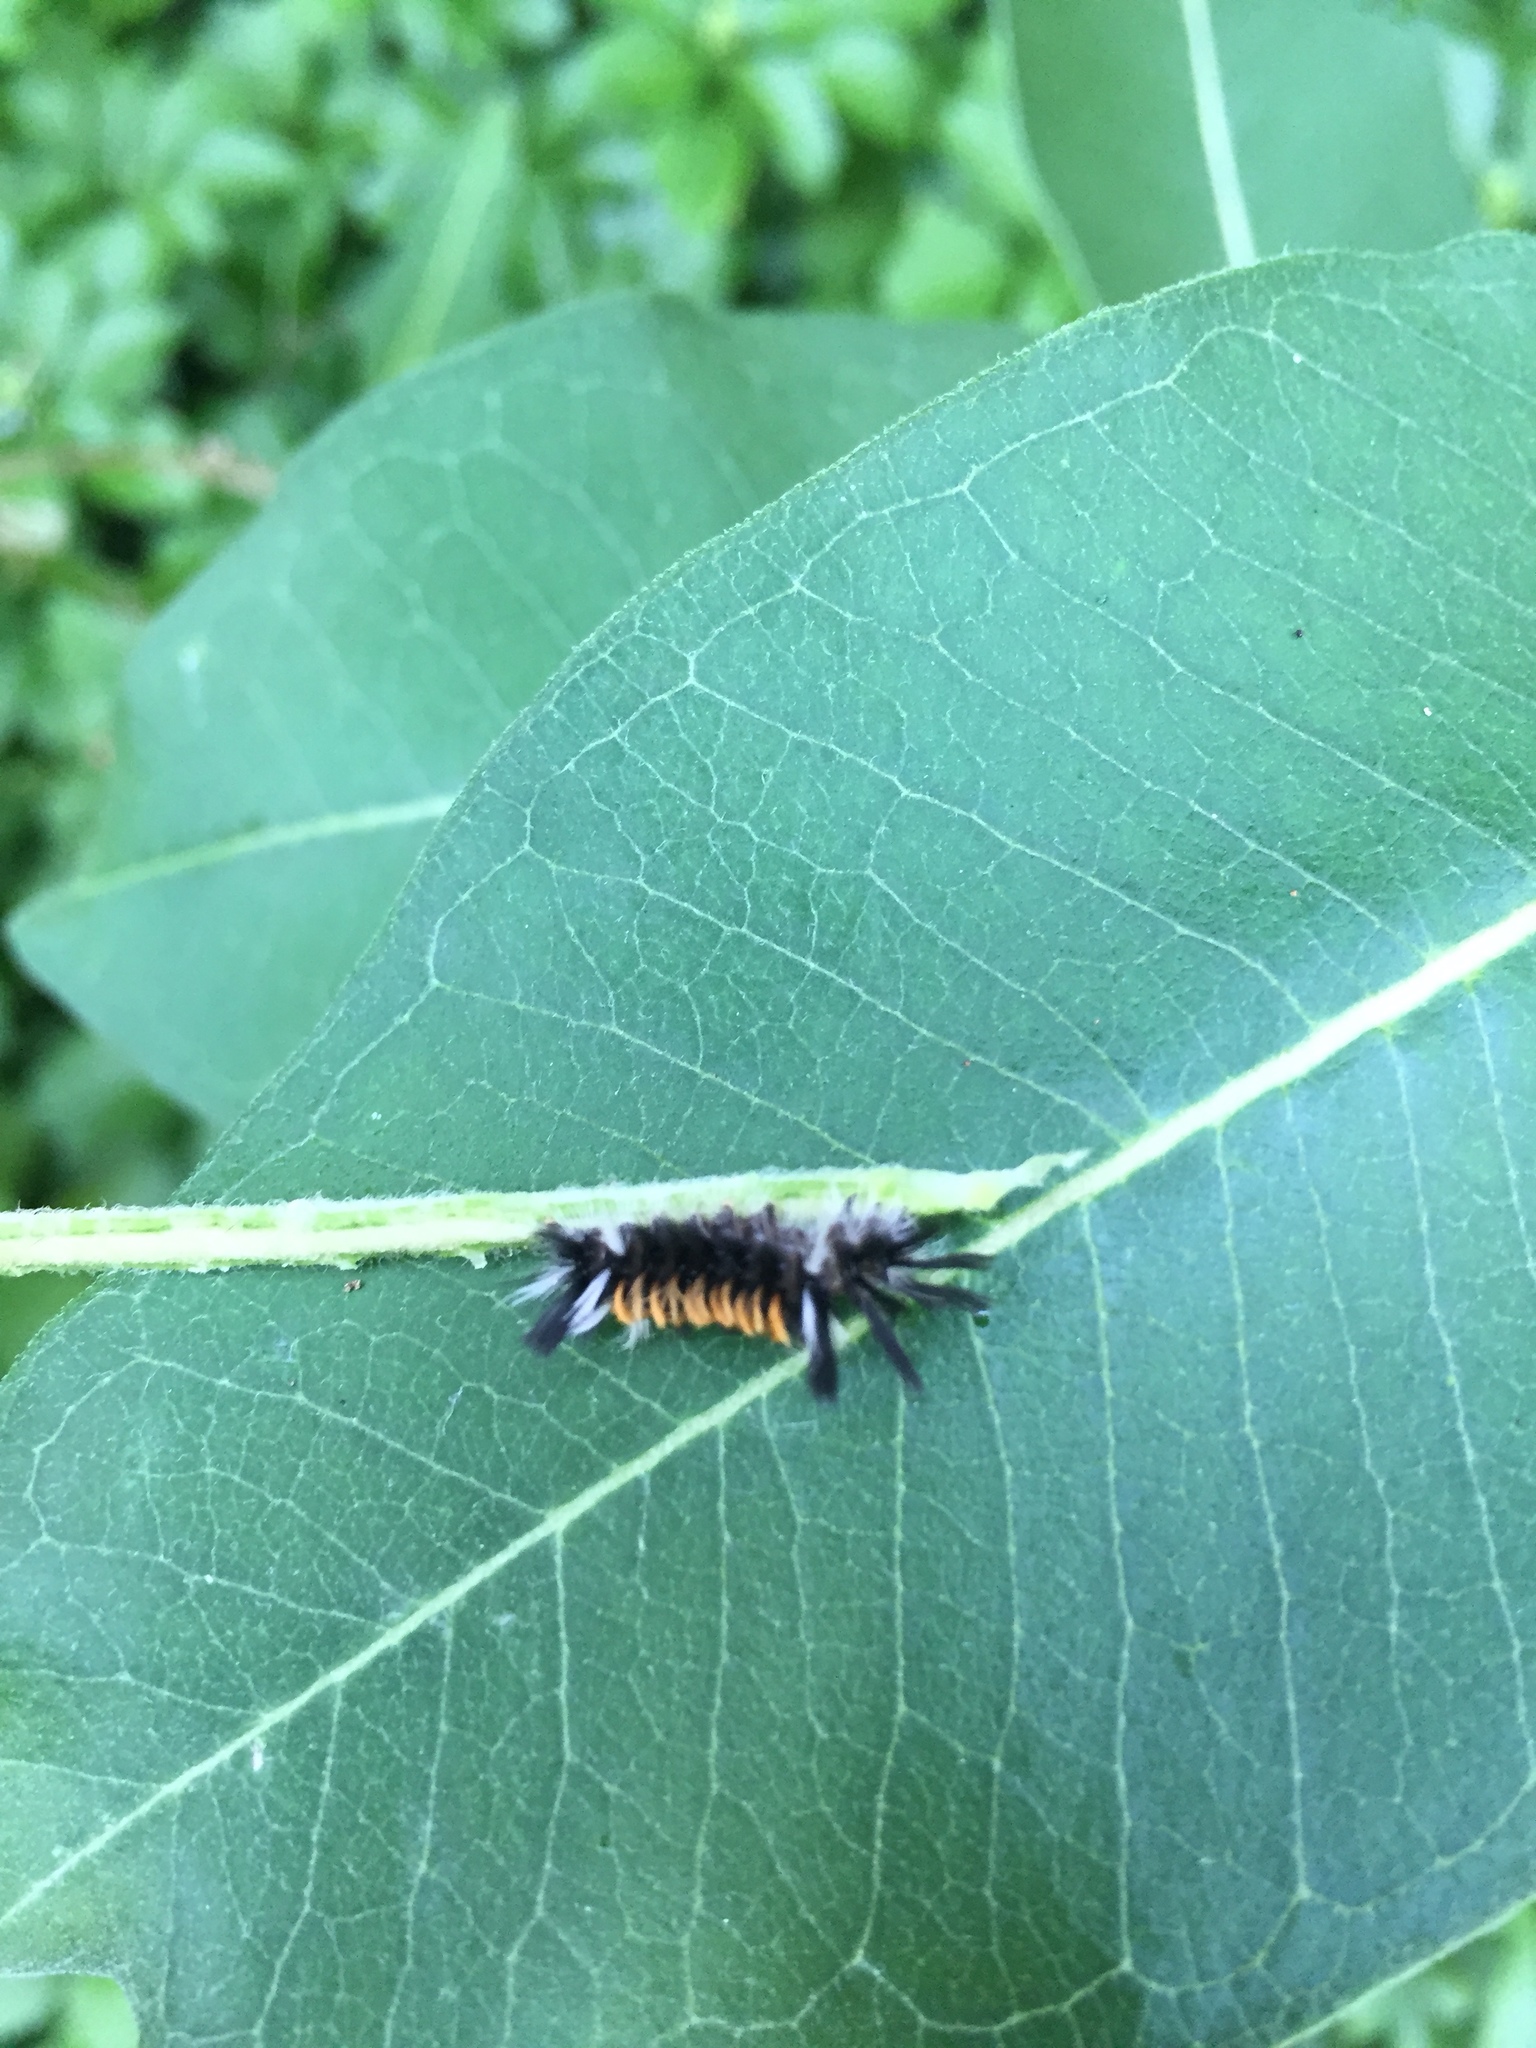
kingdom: Animalia
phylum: Arthropoda
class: Insecta
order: Lepidoptera
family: Erebidae
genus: Euchaetes
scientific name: Euchaetes egle
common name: Milkweed tussock moth
